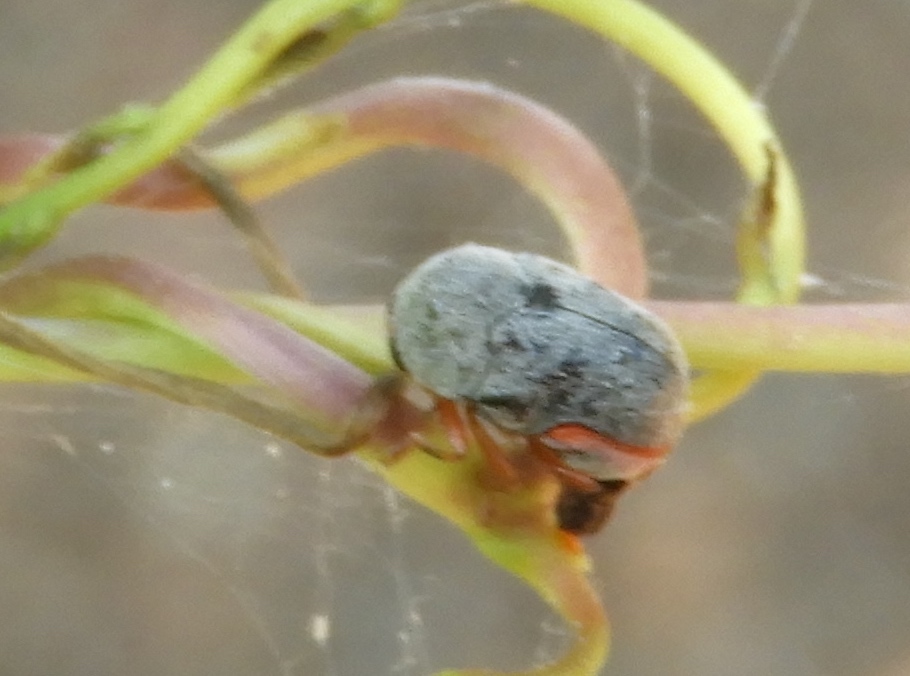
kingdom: Animalia
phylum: Arthropoda
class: Insecta
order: Coleoptera
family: Chrysomelidae
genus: Chlamisus
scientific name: Chlamisus maculipes
